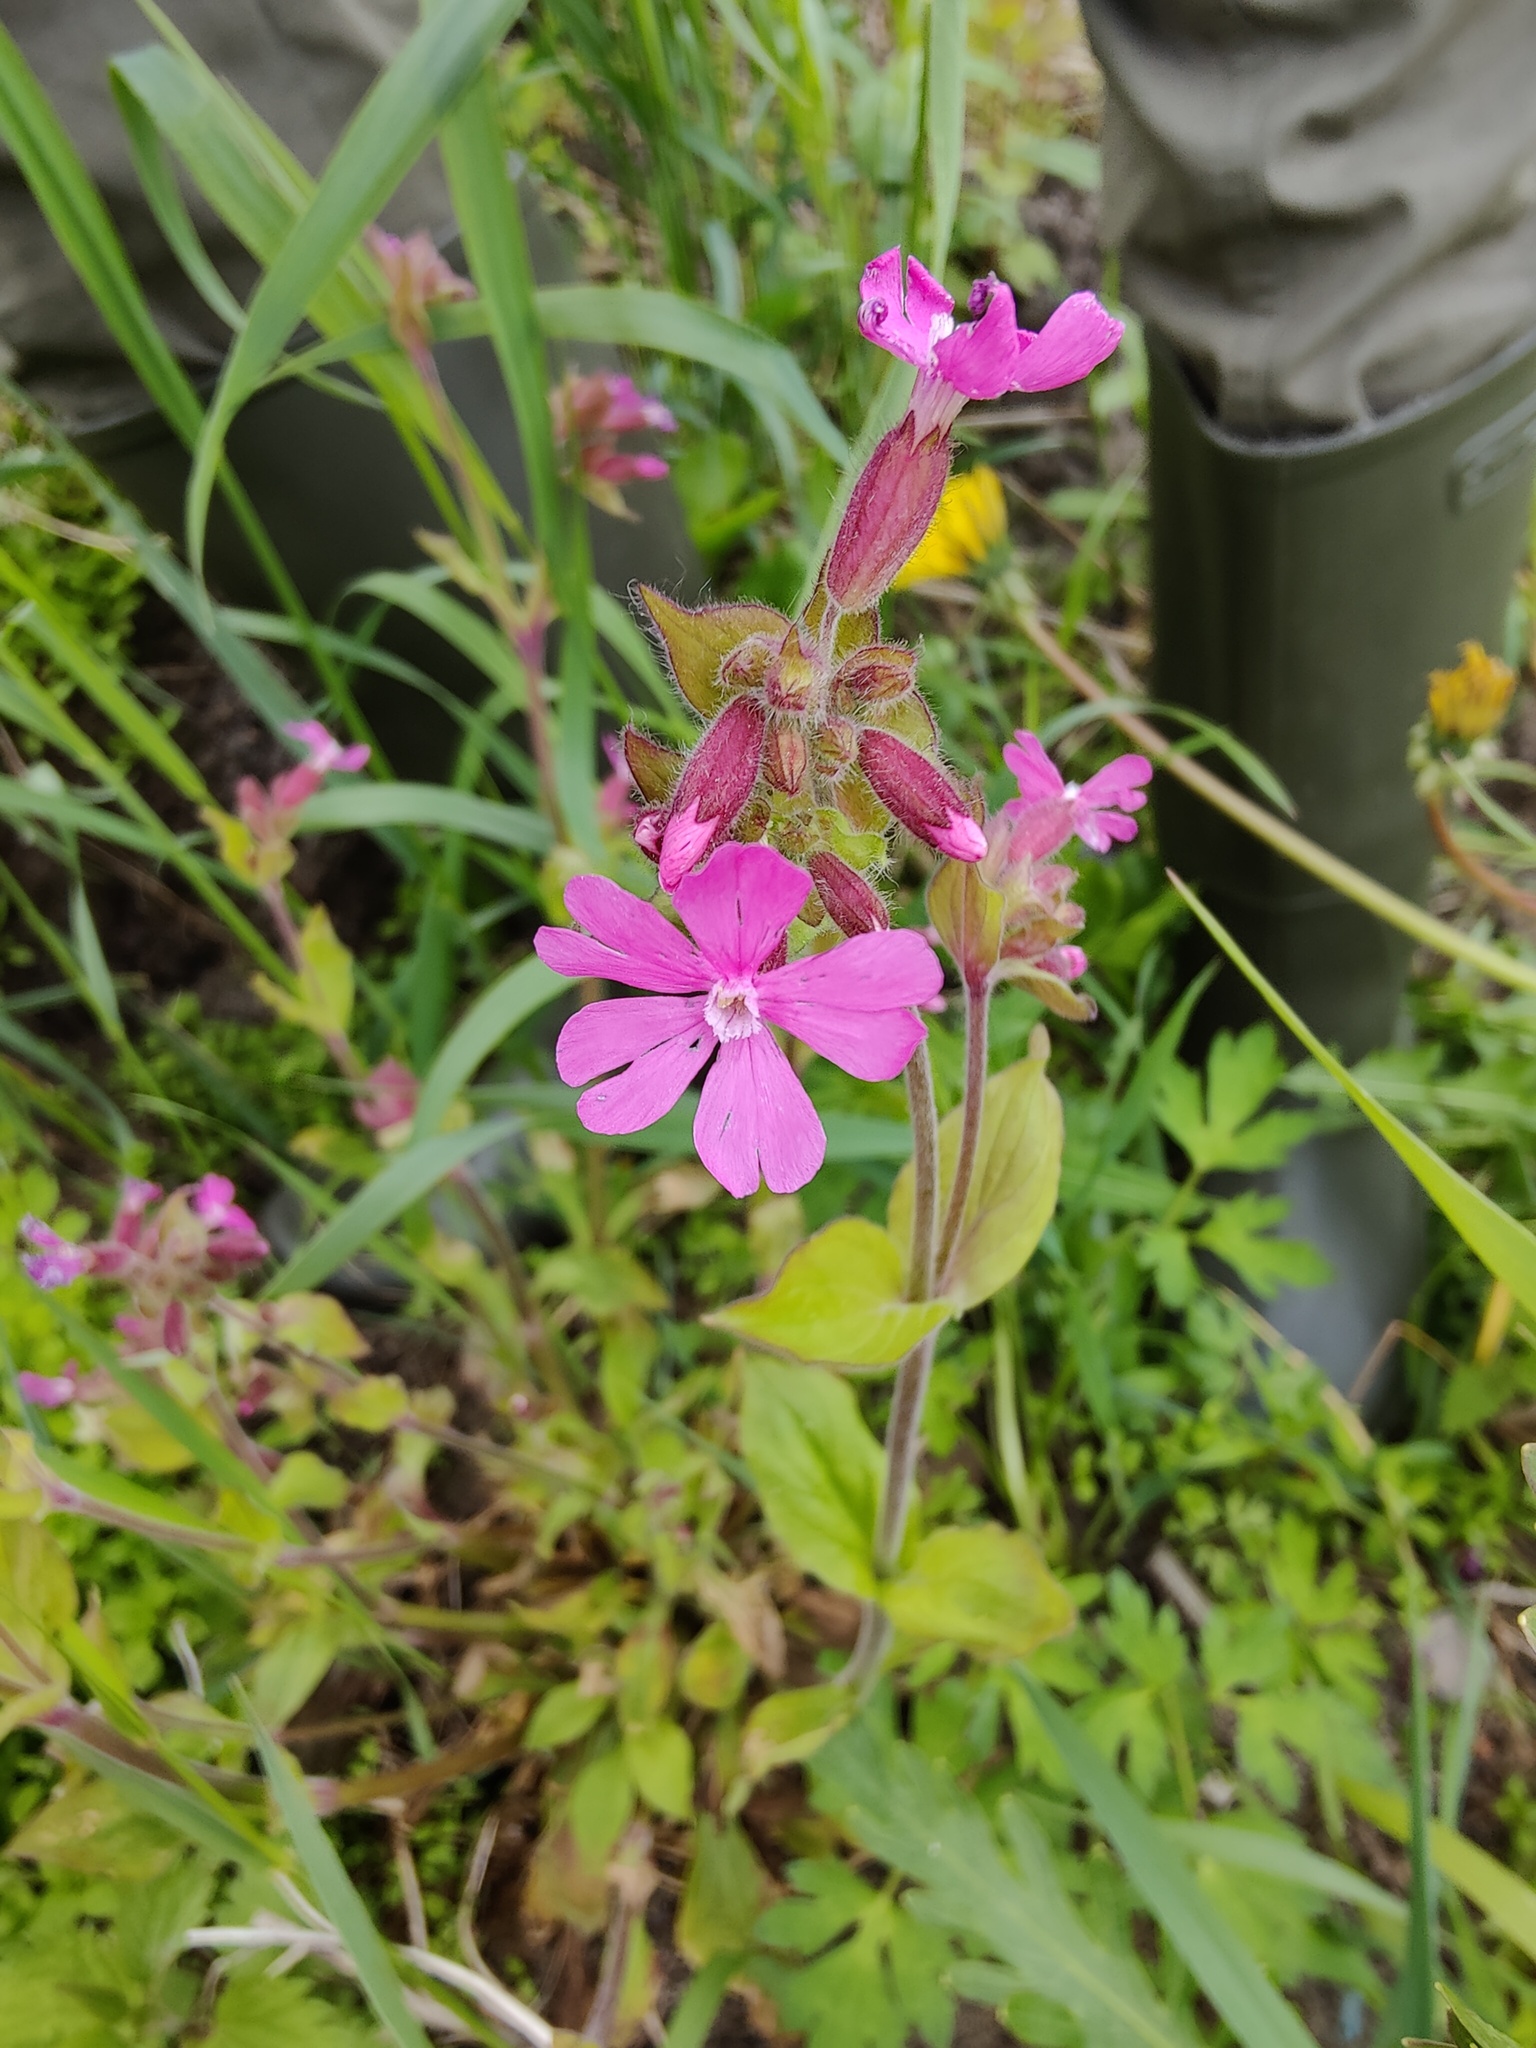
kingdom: Plantae
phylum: Tracheophyta
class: Magnoliopsida
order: Caryophyllales
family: Caryophyllaceae
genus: Silene
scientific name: Silene dioica
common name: Red campion
